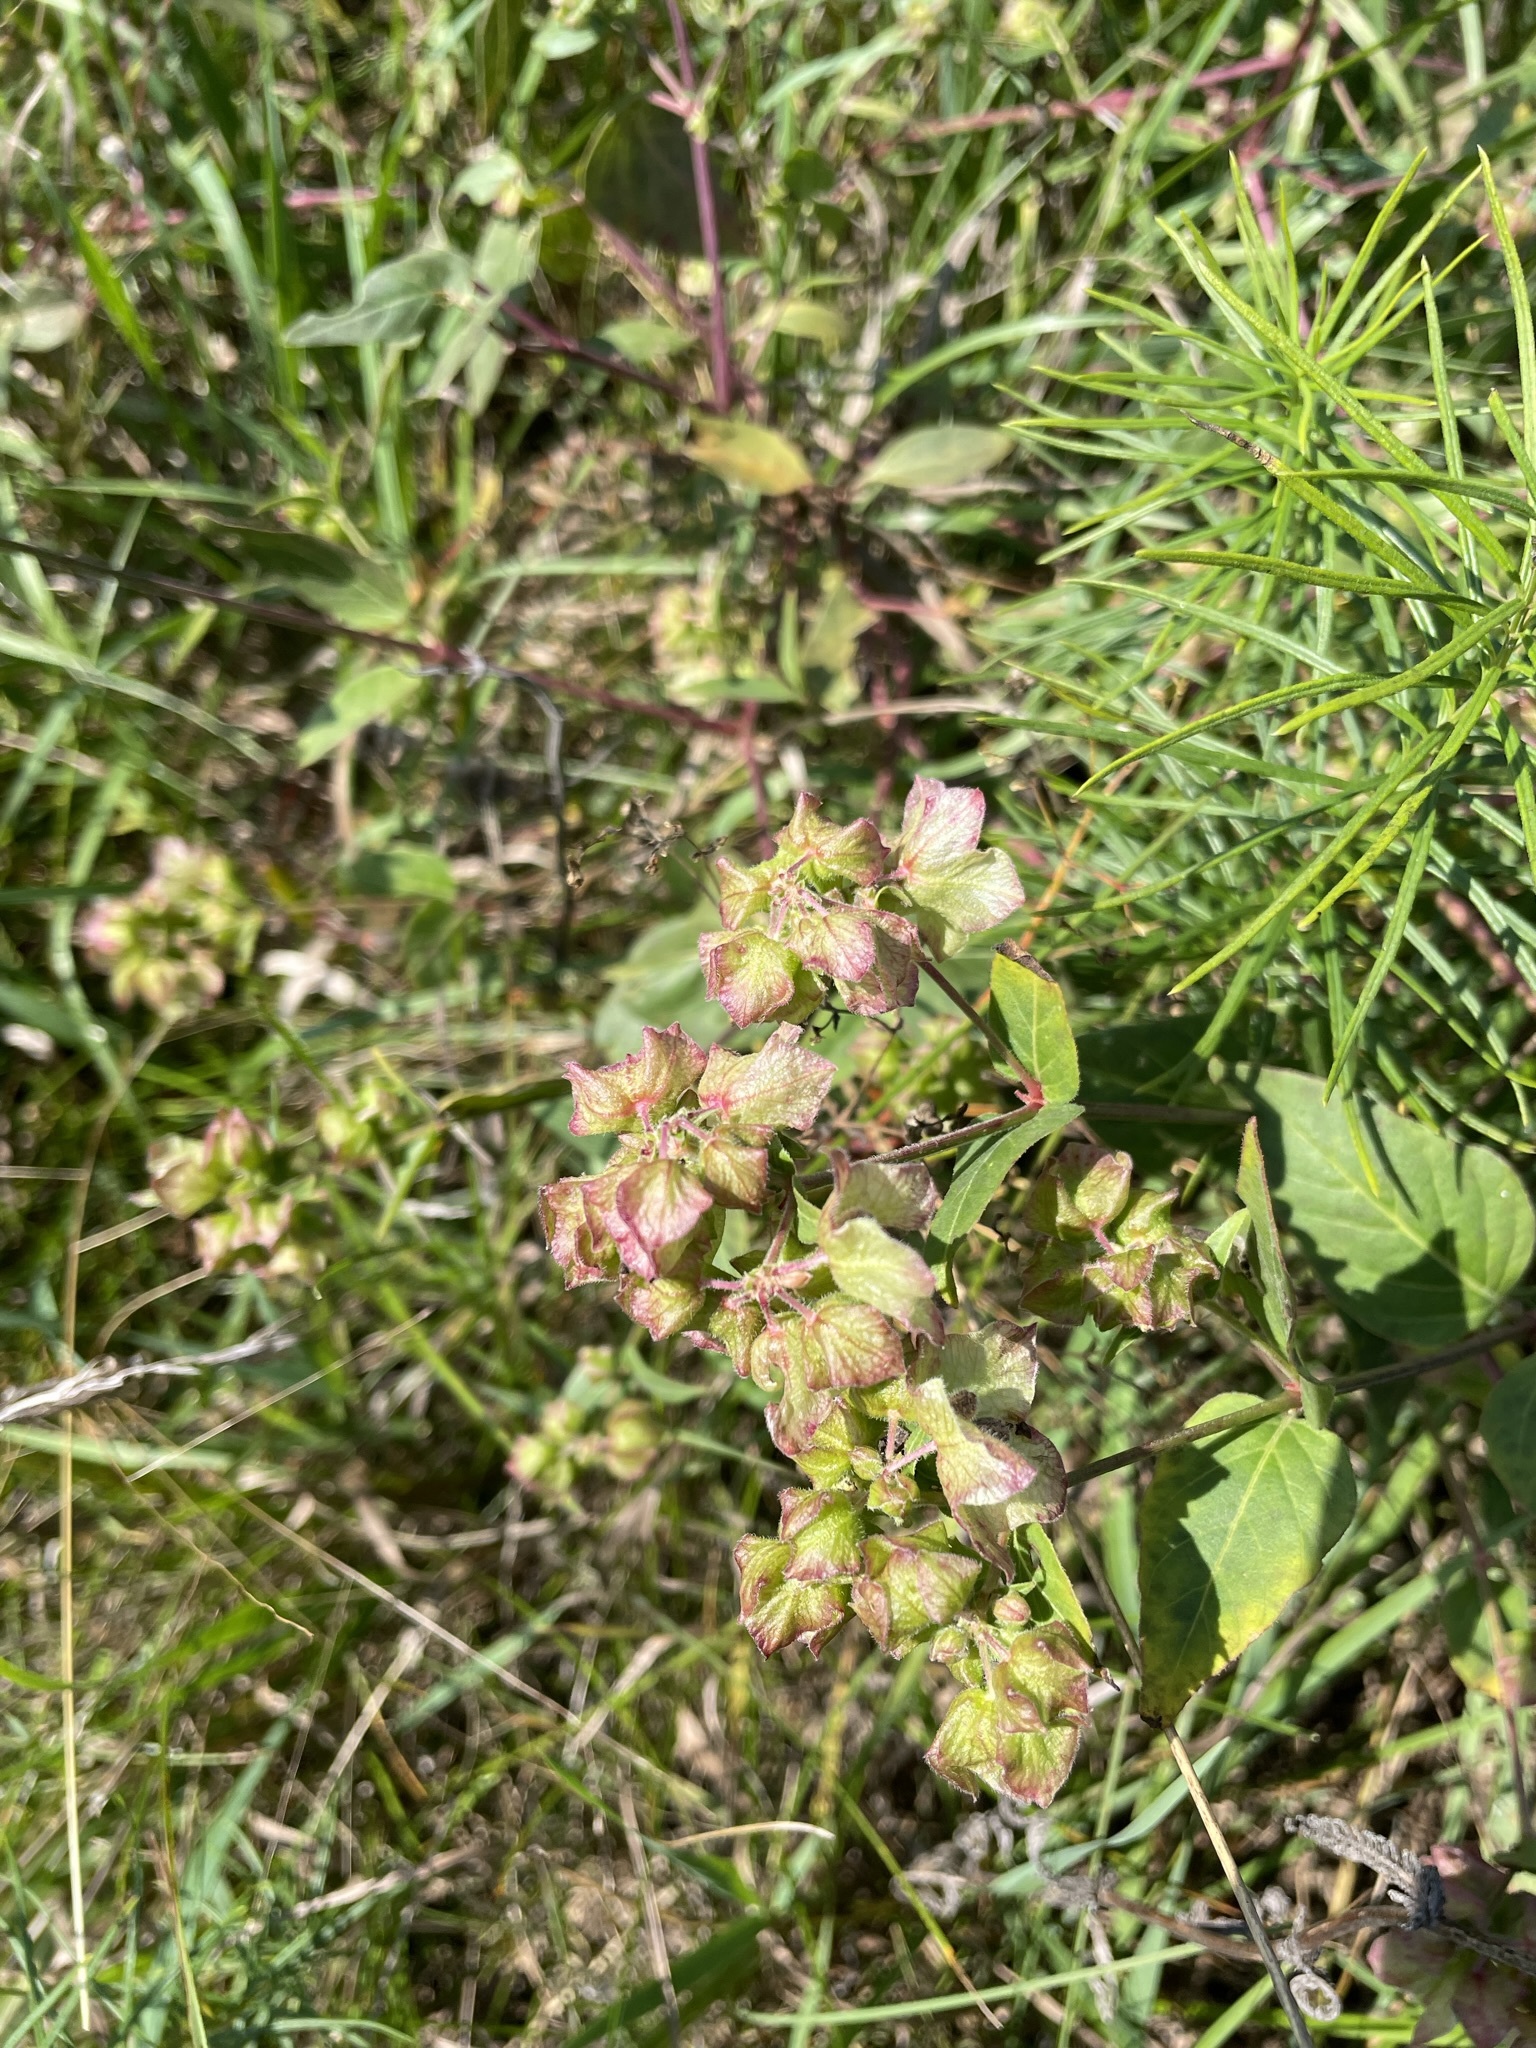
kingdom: Plantae
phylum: Tracheophyta
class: Magnoliopsida
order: Caryophyllales
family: Nyctaginaceae
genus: Mirabilis
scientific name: Mirabilis nyctaginea
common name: Umbrella wort
